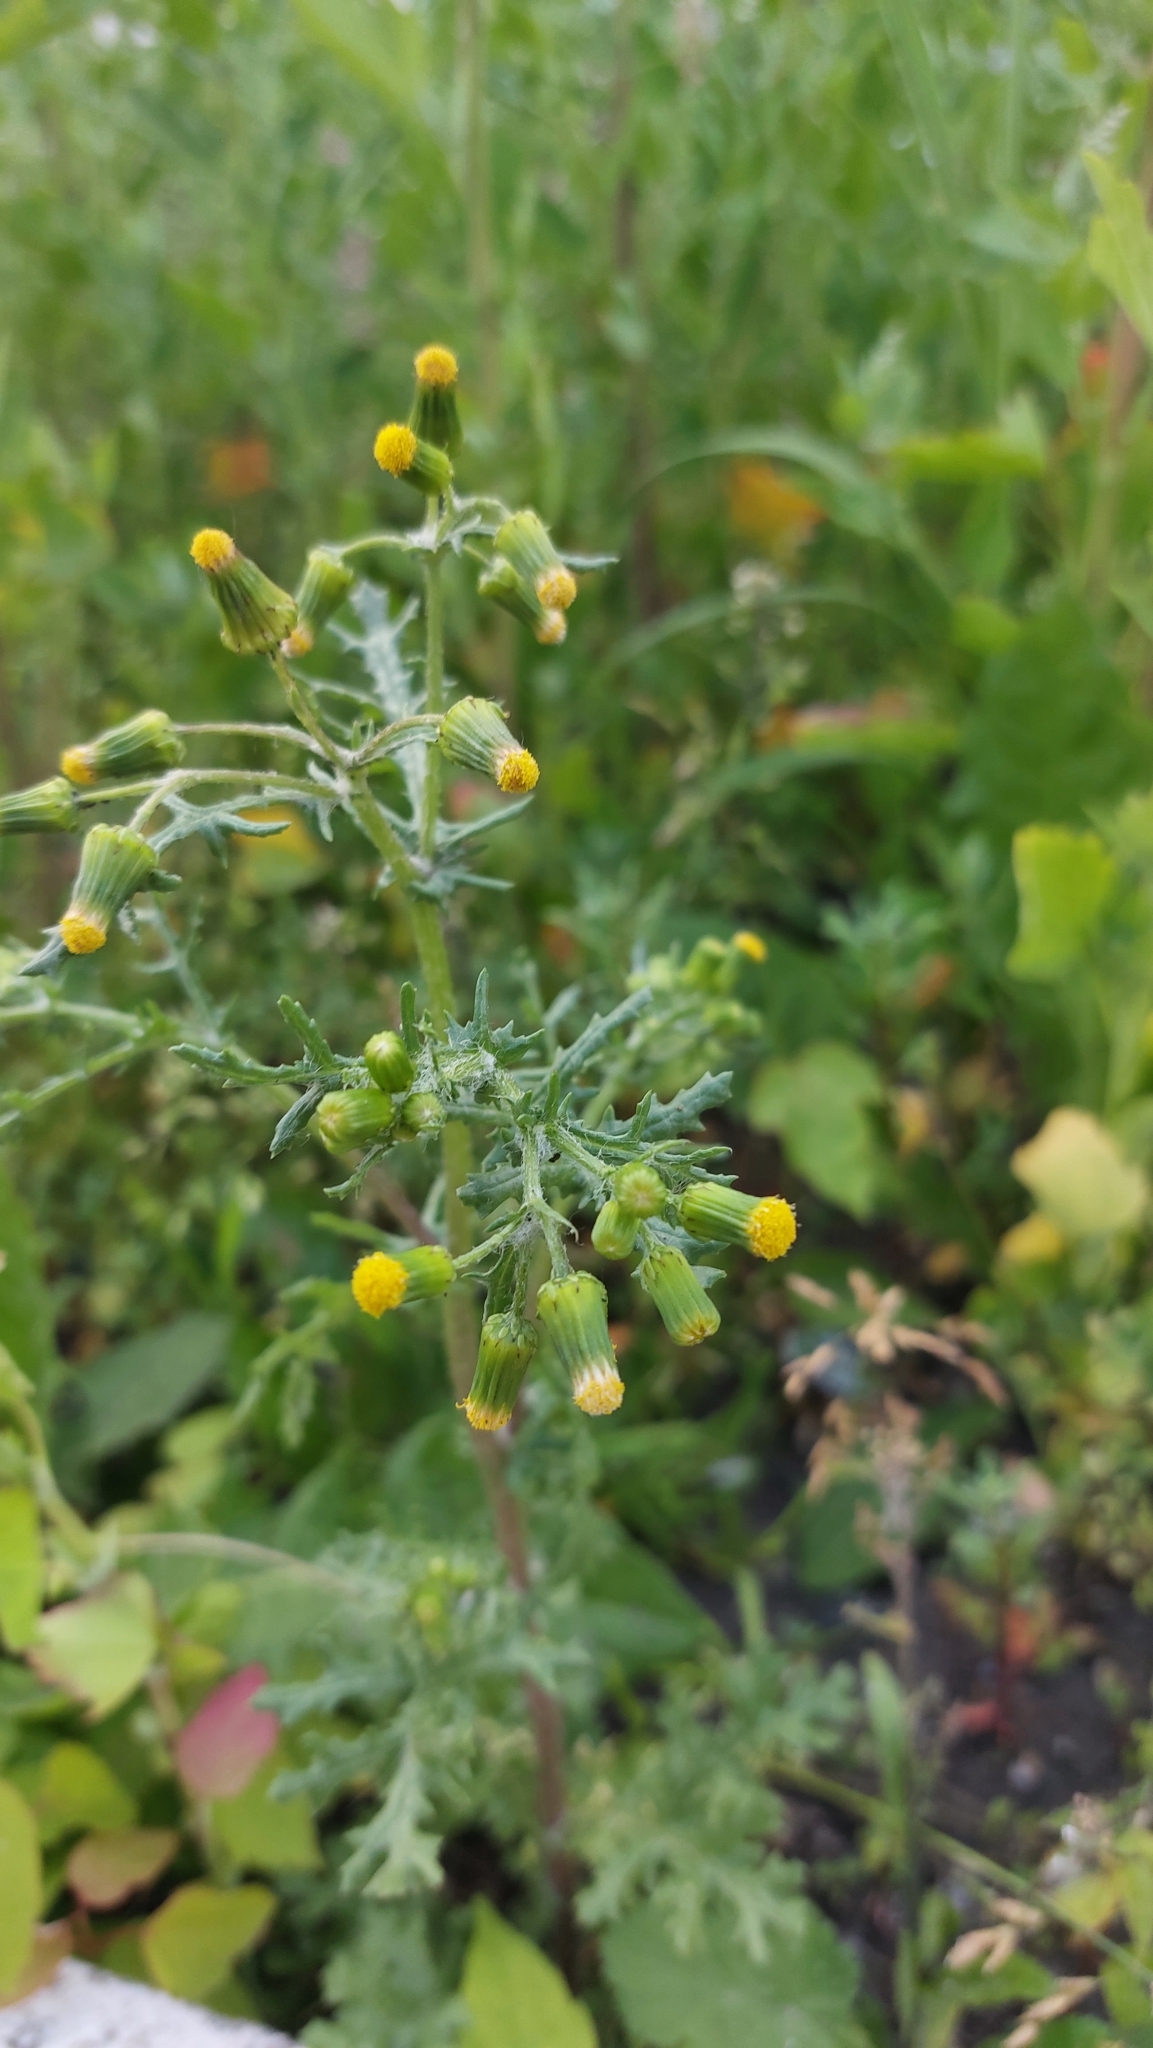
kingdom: Plantae
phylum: Tracheophyta
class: Magnoliopsida
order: Asterales
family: Asteraceae
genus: Senecio
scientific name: Senecio vulgaris
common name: Old-man-in-the-spring
